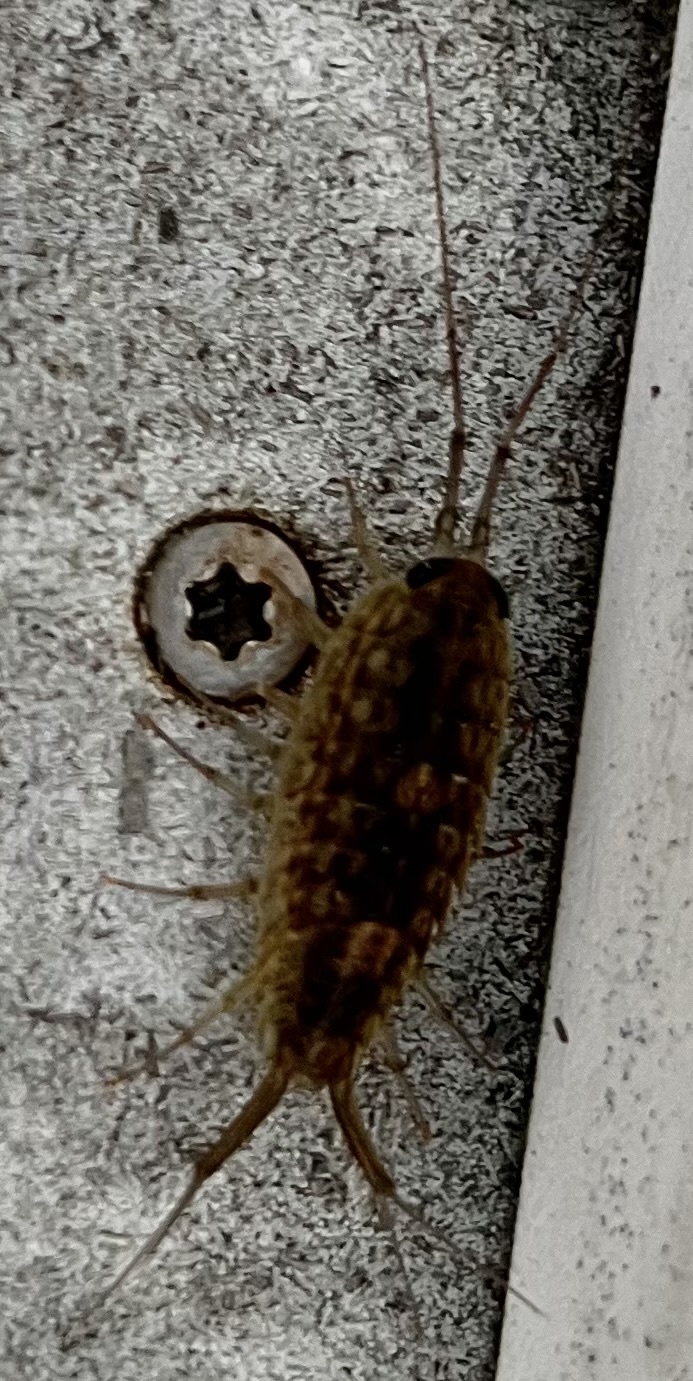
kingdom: Animalia
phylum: Arthropoda
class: Malacostraca
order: Isopoda
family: Ligiidae
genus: Ligia
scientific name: Ligia exotica
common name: Wharf roach
